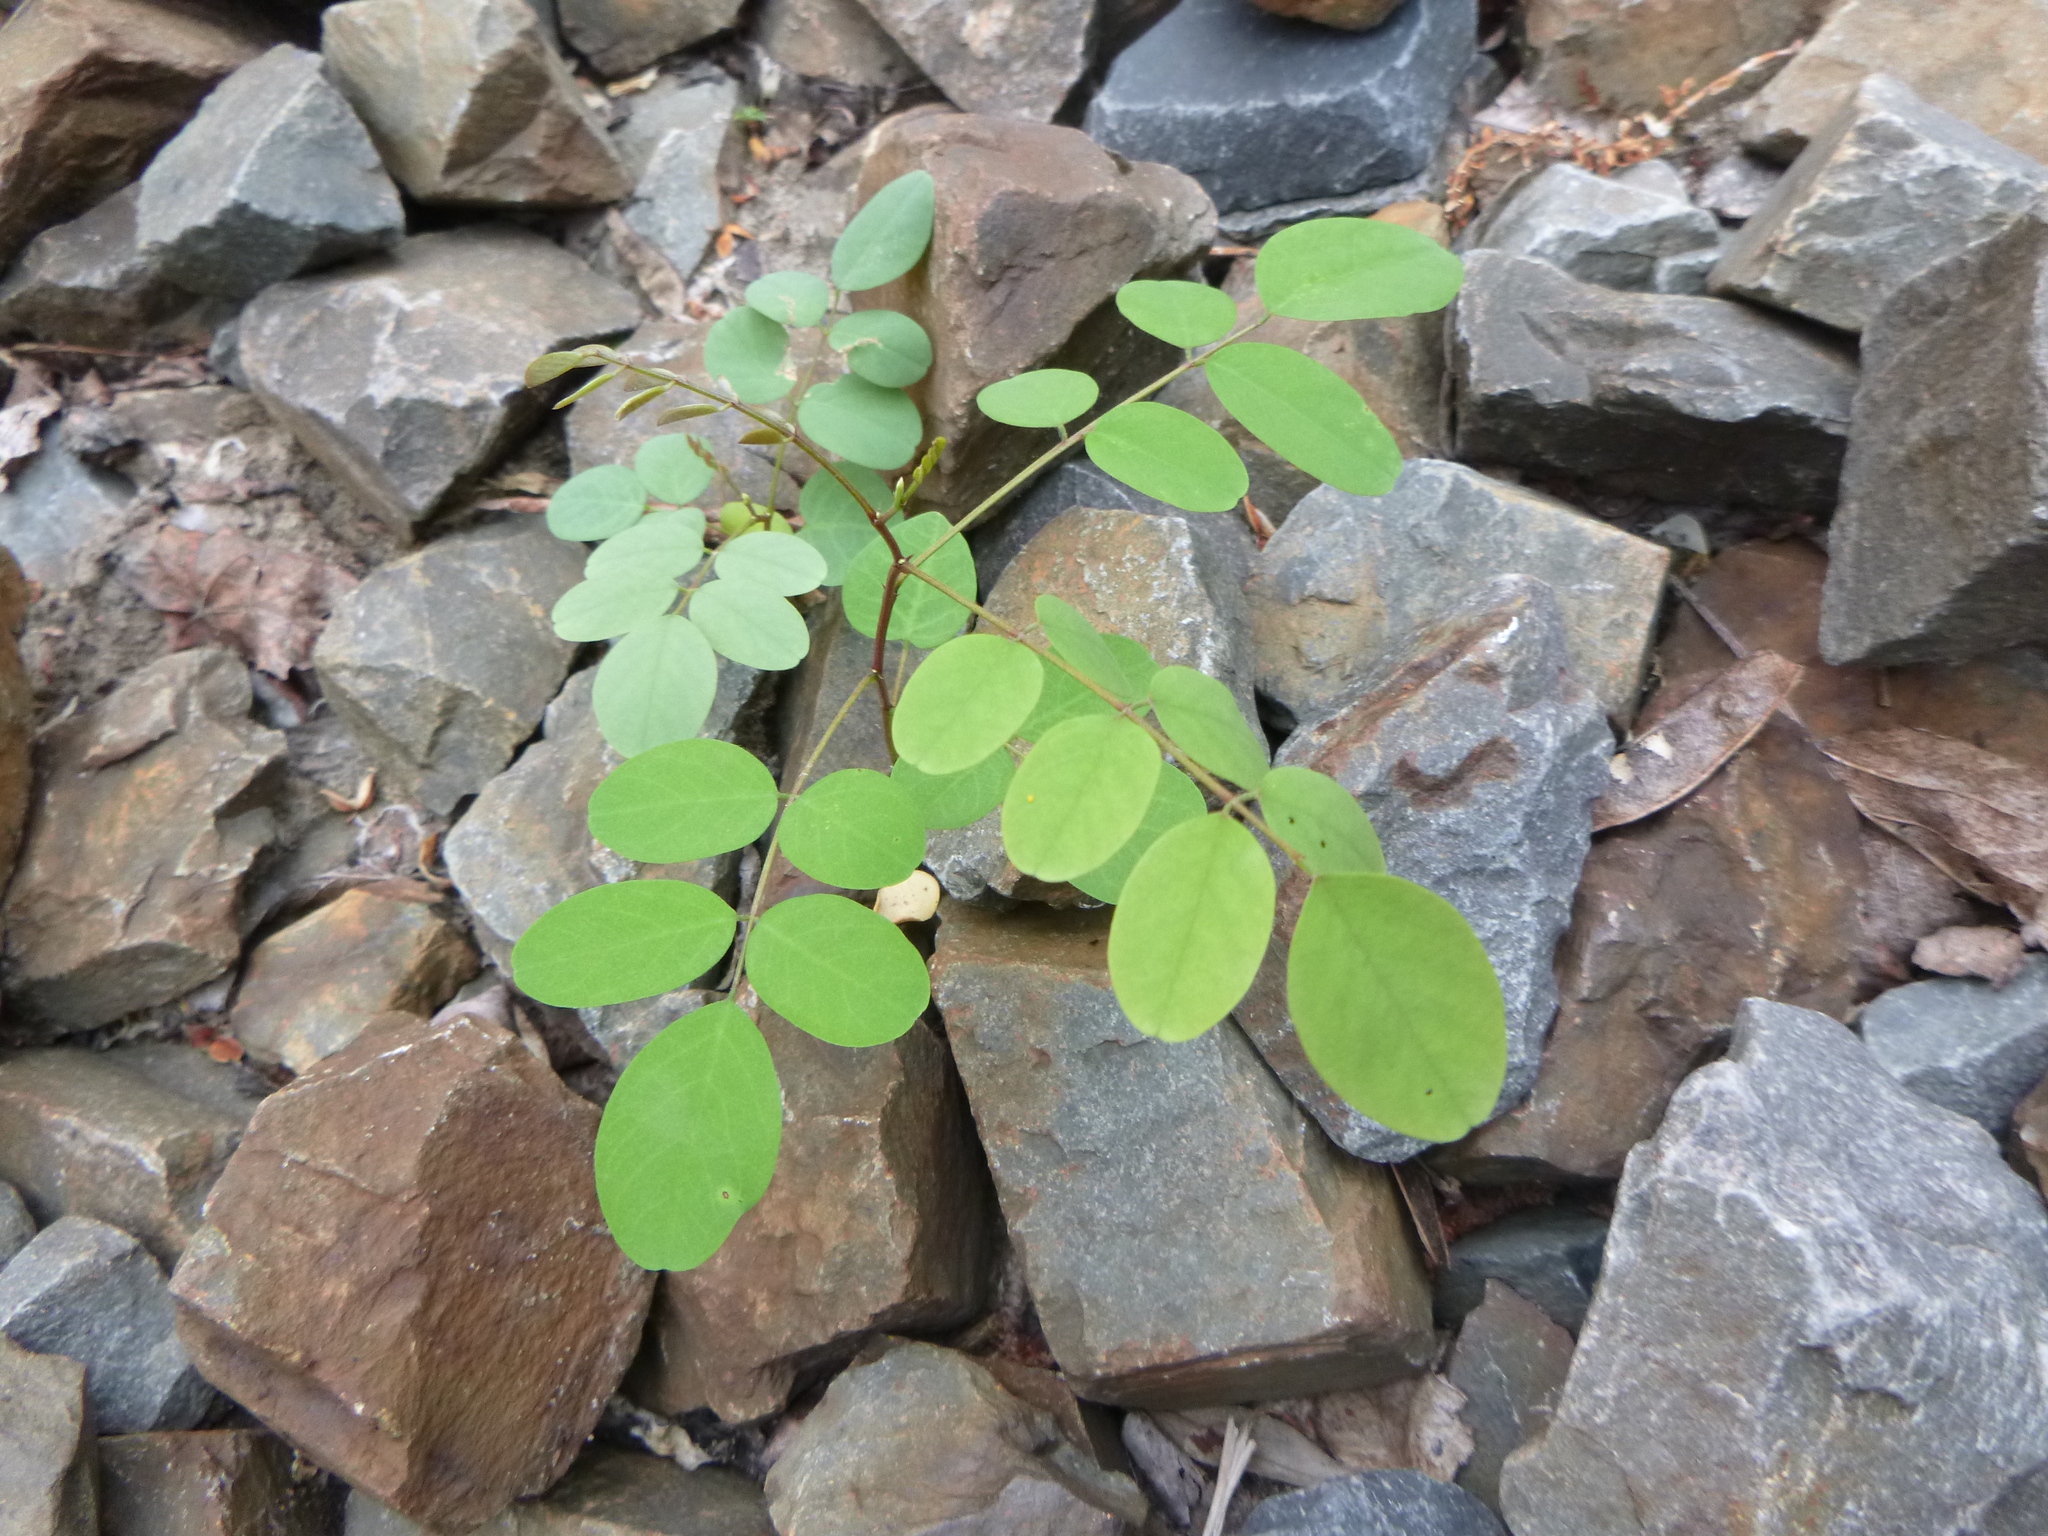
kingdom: Plantae
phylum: Tracheophyta
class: Magnoliopsida
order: Fabales
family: Fabaceae
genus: Robinia
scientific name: Robinia pseudoacacia
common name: Black locust
